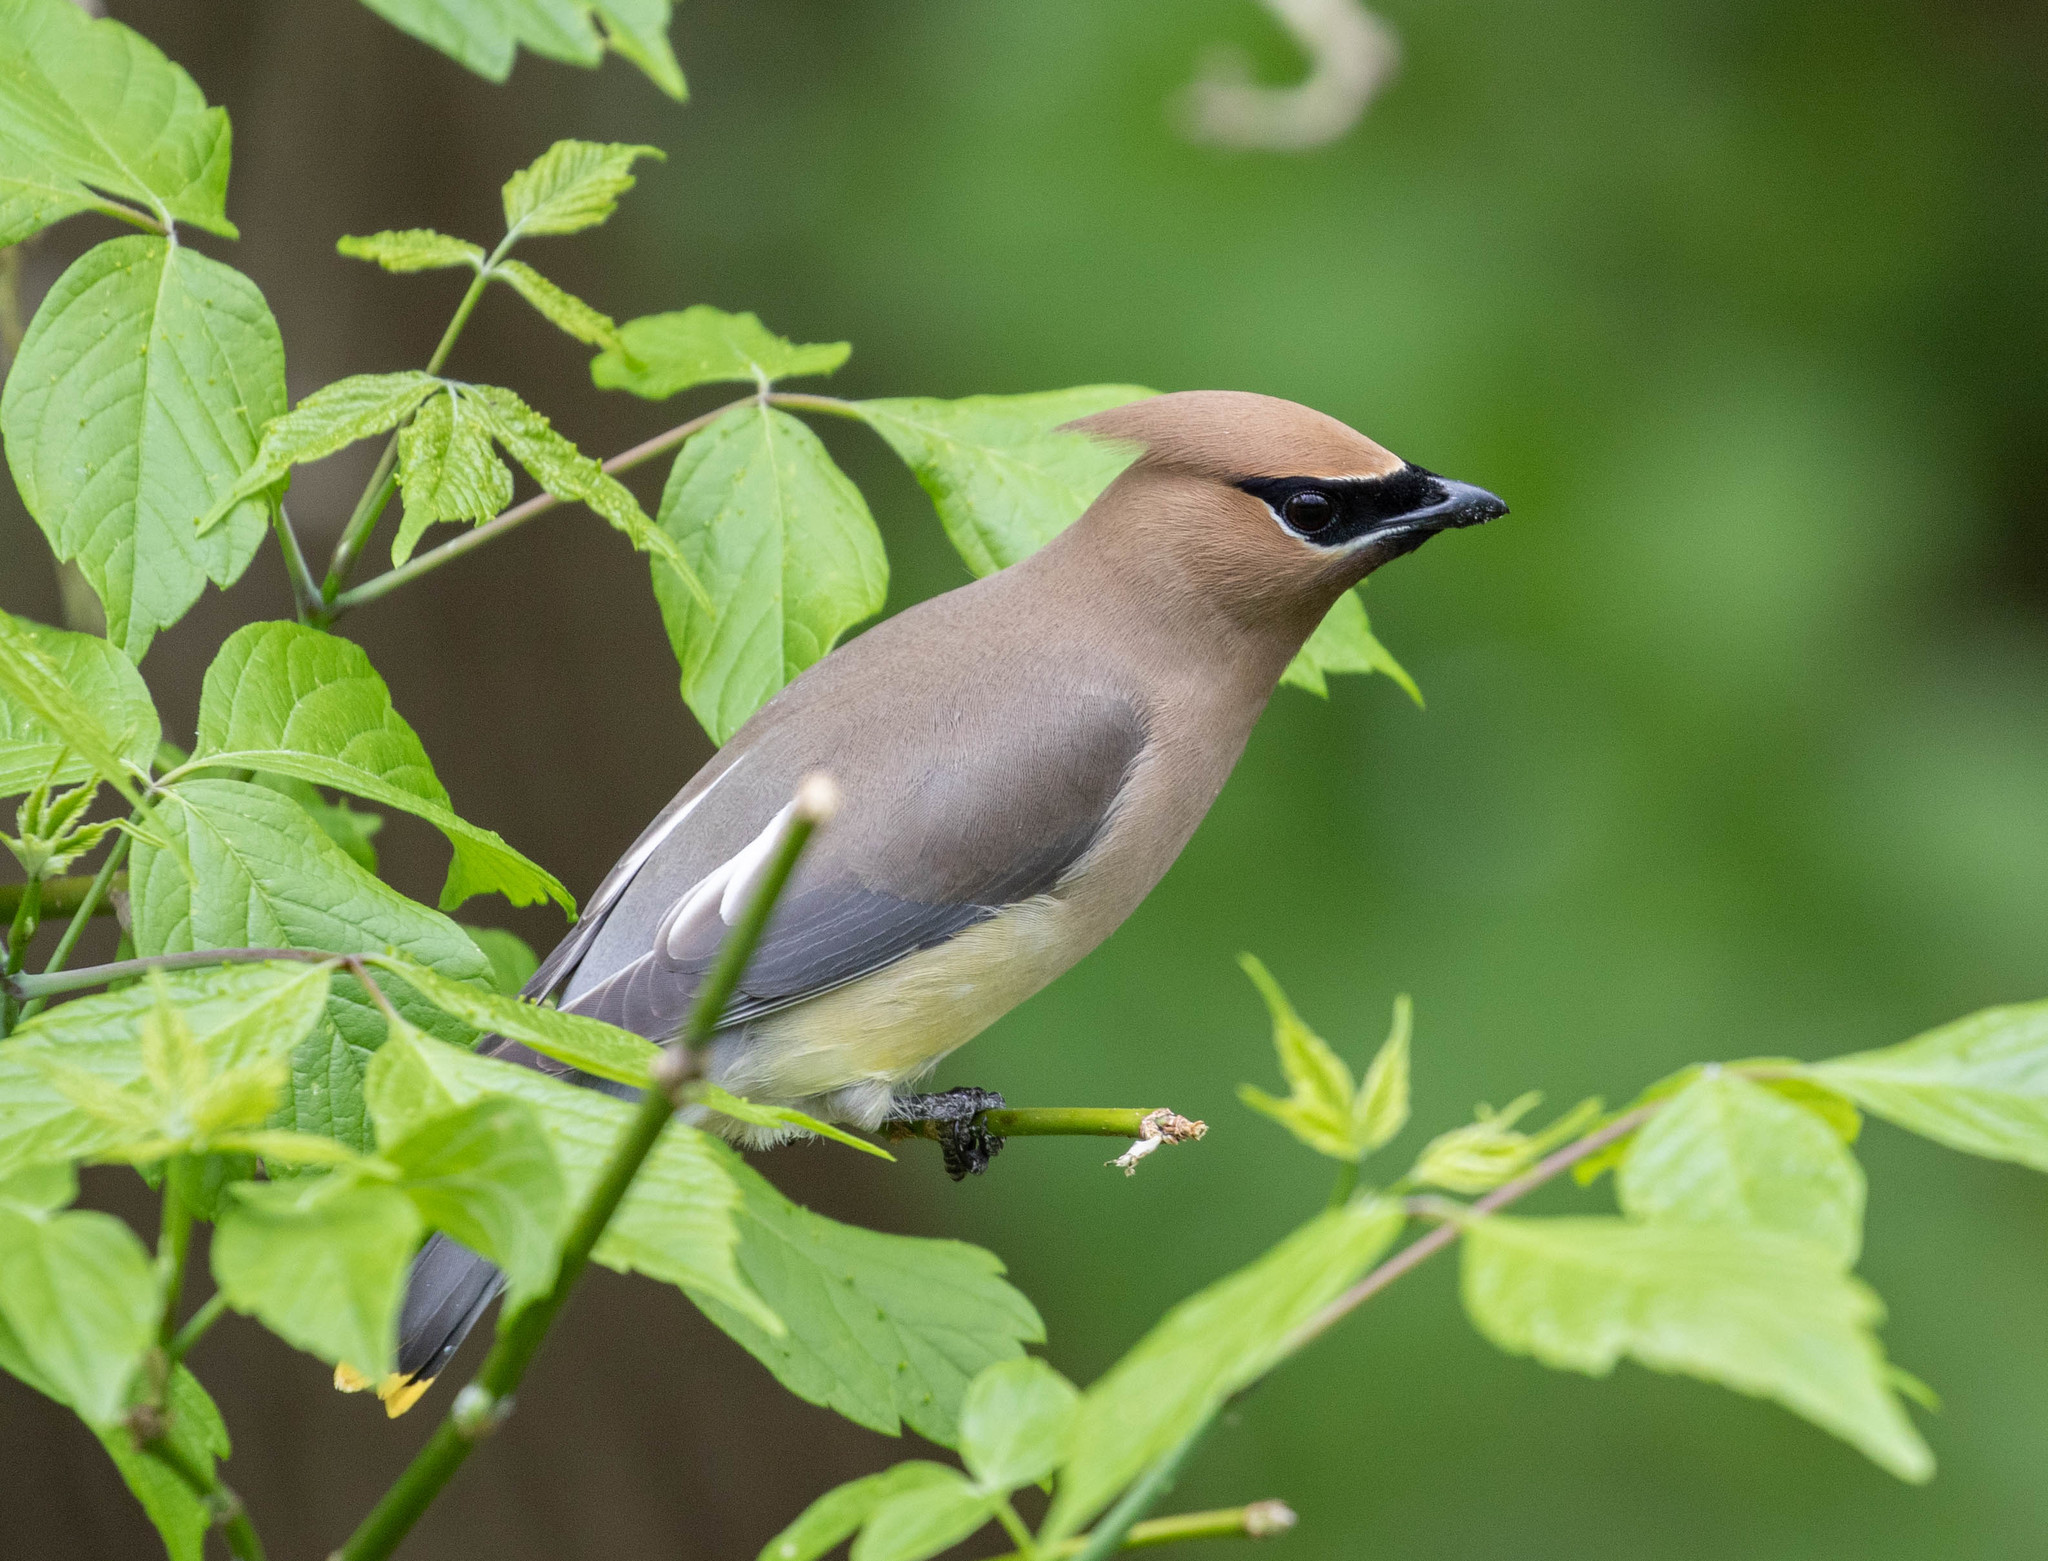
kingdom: Animalia
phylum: Chordata
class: Aves
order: Passeriformes
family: Bombycillidae
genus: Bombycilla
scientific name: Bombycilla cedrorum
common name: Cedar waxwing
